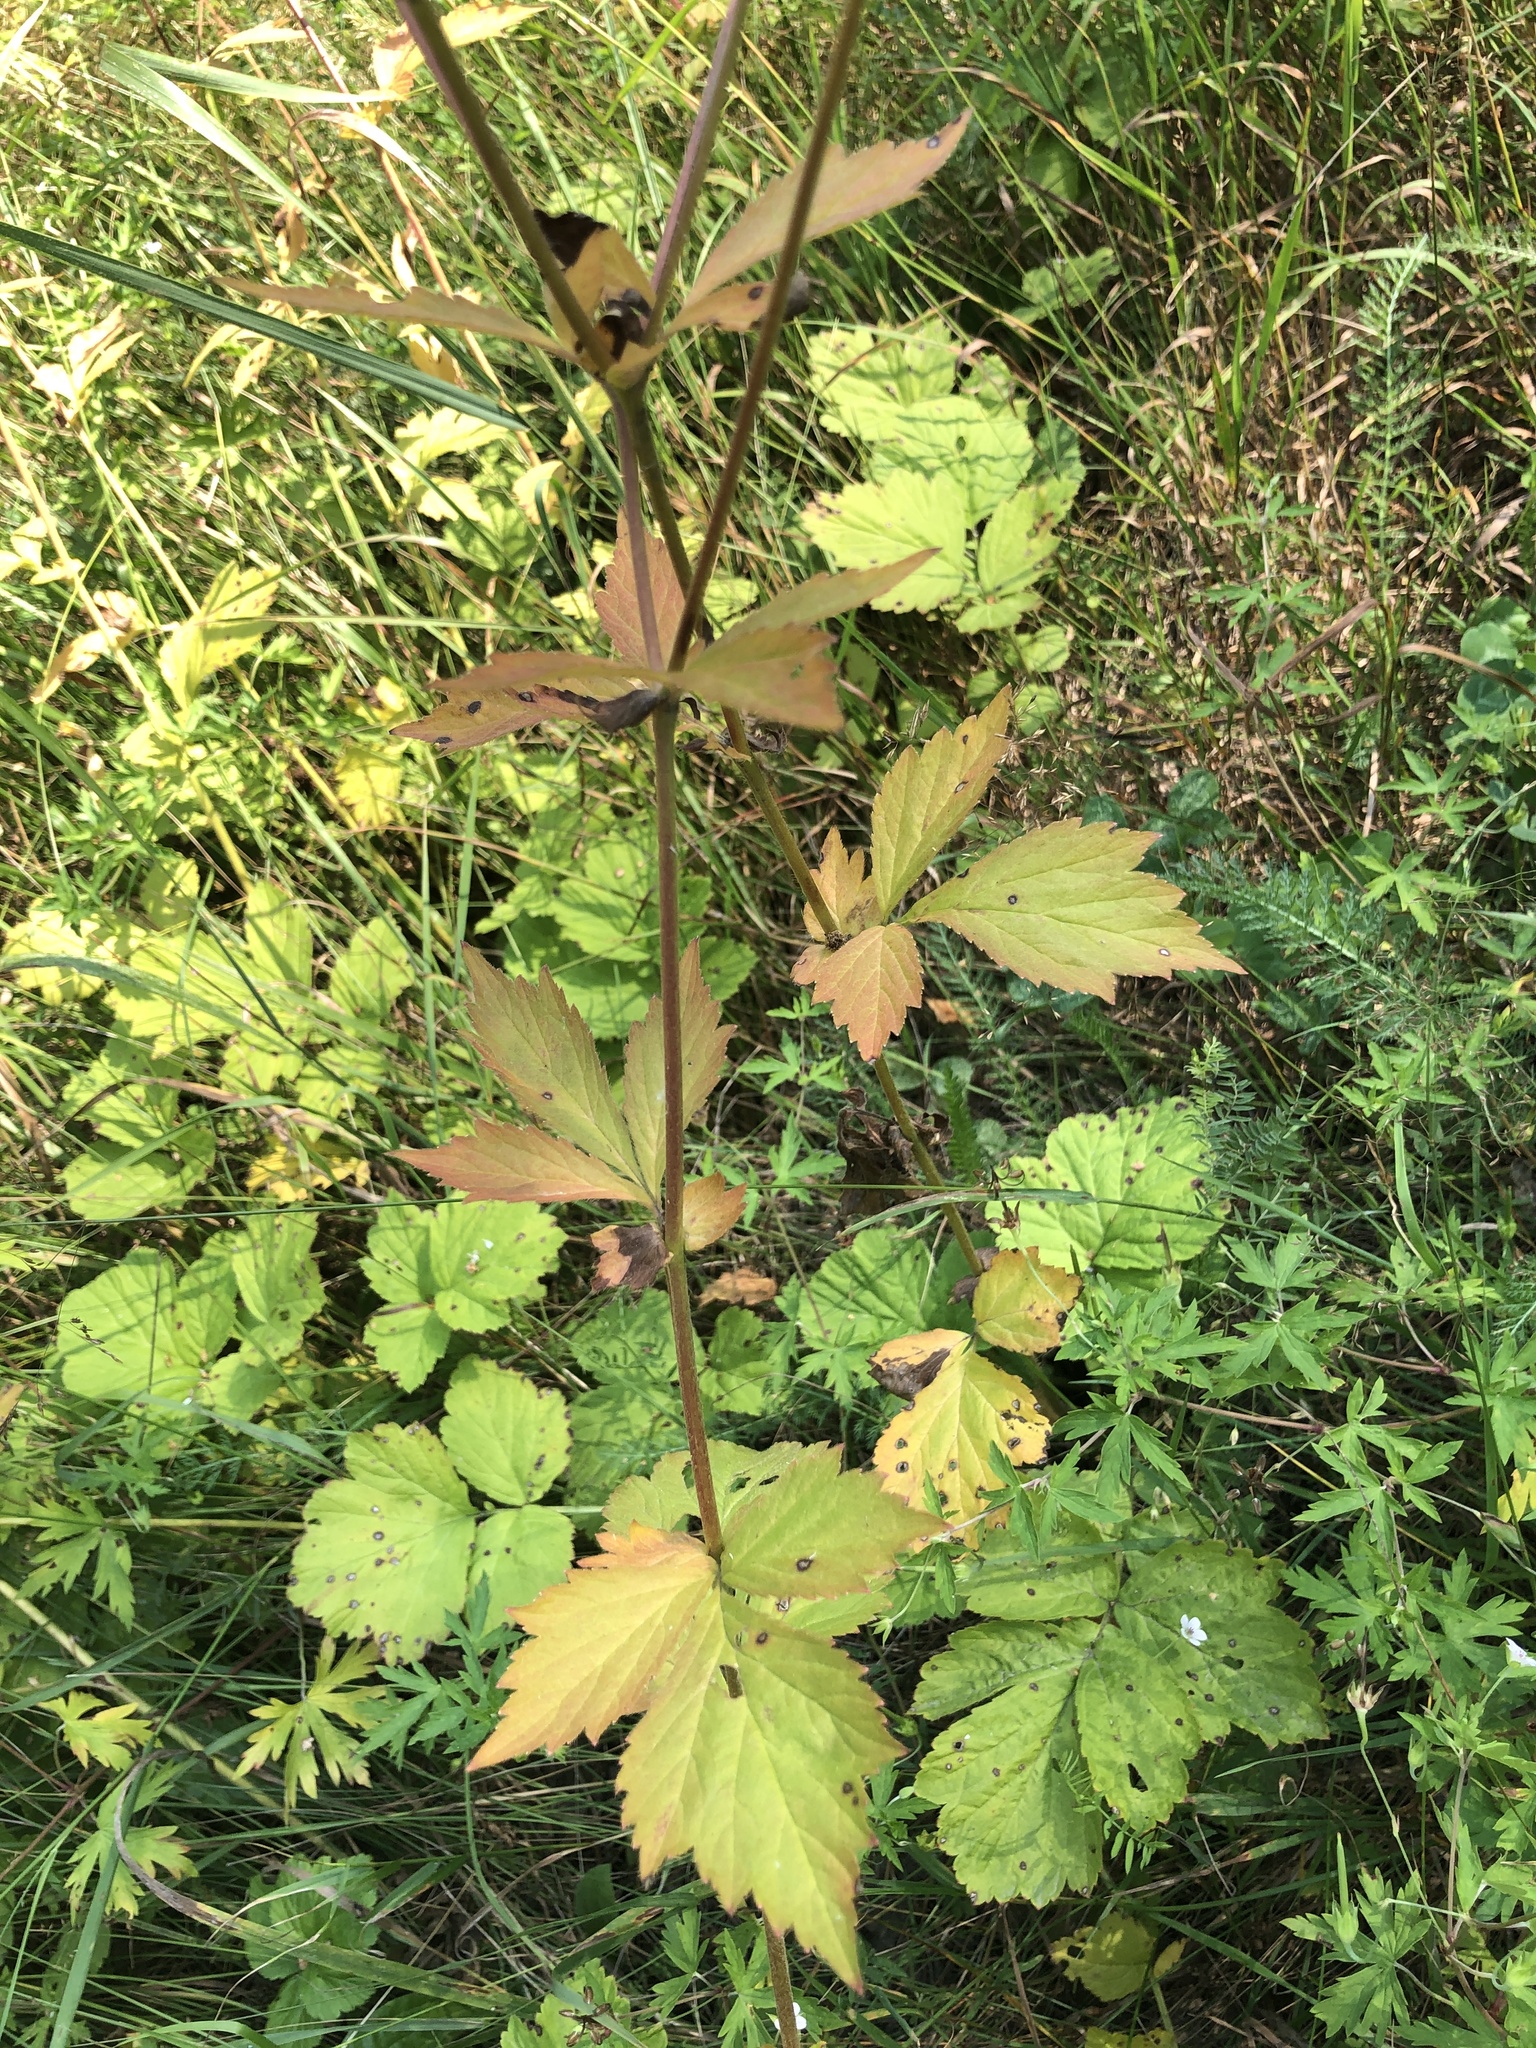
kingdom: Plantae
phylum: Tracheophyta
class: Magnoliopsida
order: Rosales
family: Rosaceae
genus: Geum
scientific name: Geum aleppicum
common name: Yellow avens
